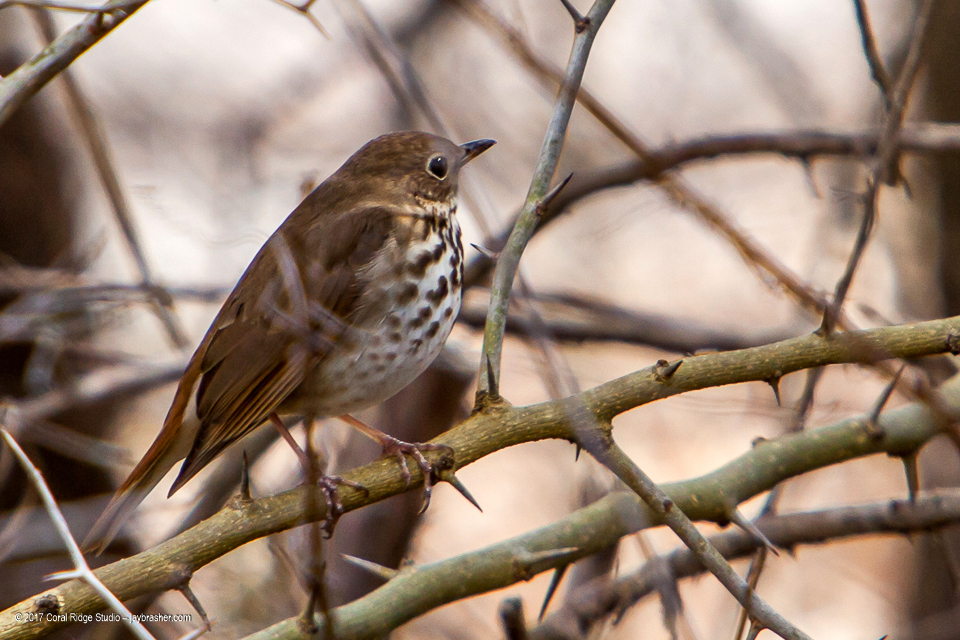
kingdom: Animalia
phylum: Chordata
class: Aves
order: Passeriformes
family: Turdidae
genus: Catharus
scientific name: Catharus guttatus
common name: Hermit thrush
